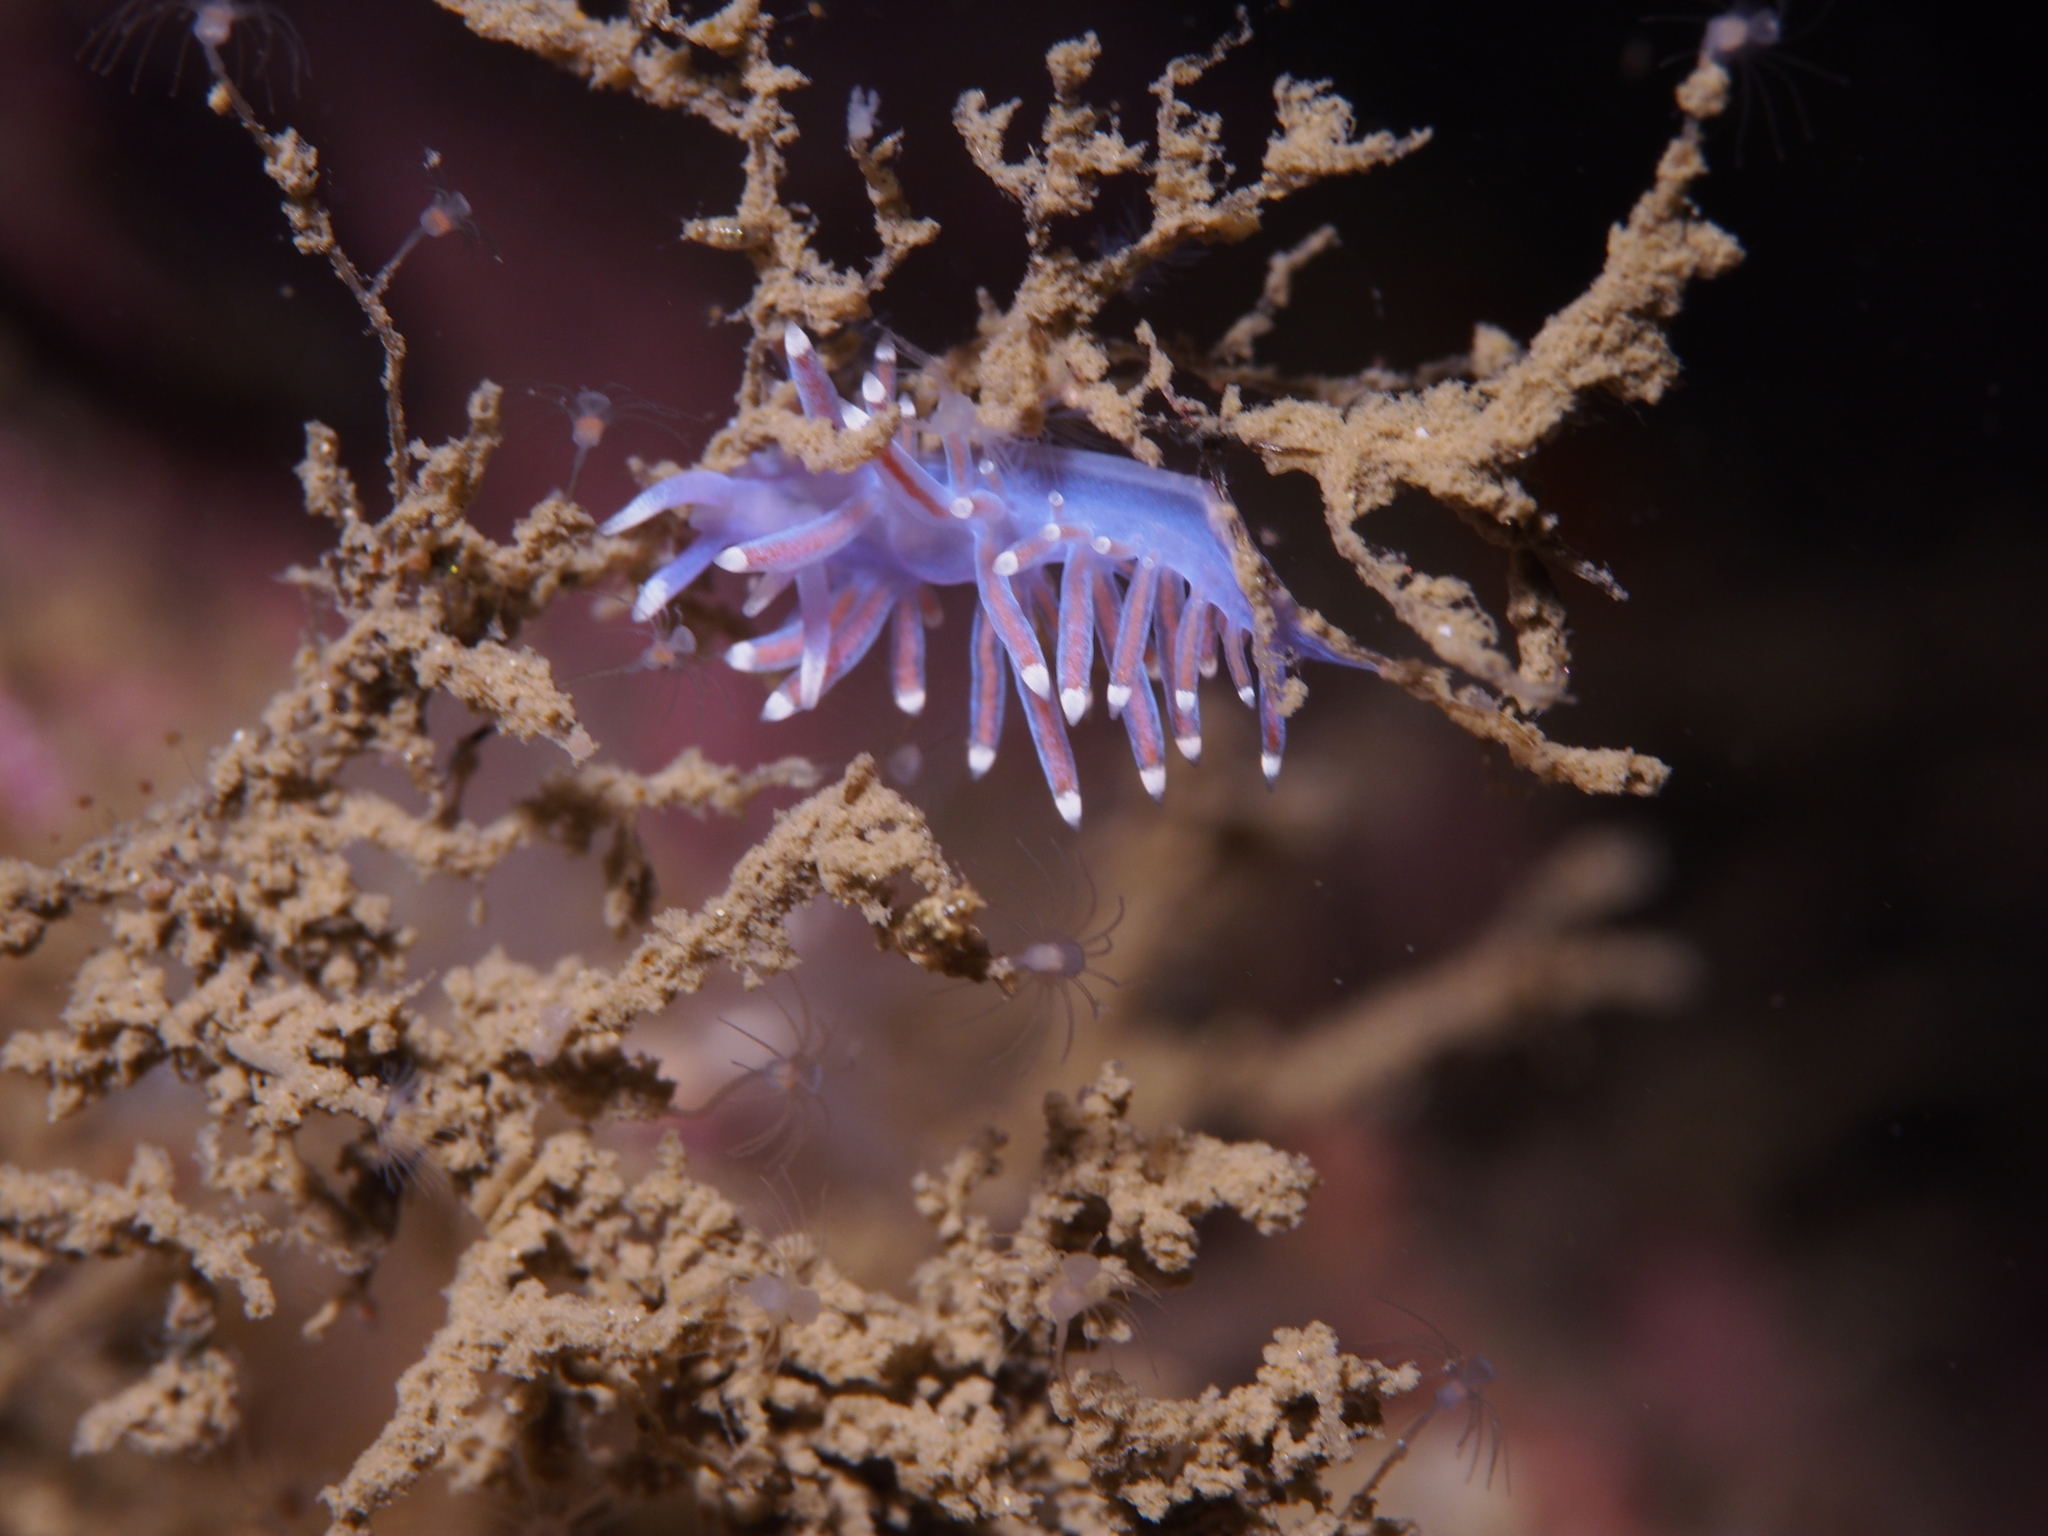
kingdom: Animalia
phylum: Mollusca
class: Gastropoda
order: Nudibranchia
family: Flabellinidae
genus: Edmundsella
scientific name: Edmundsella pedata
